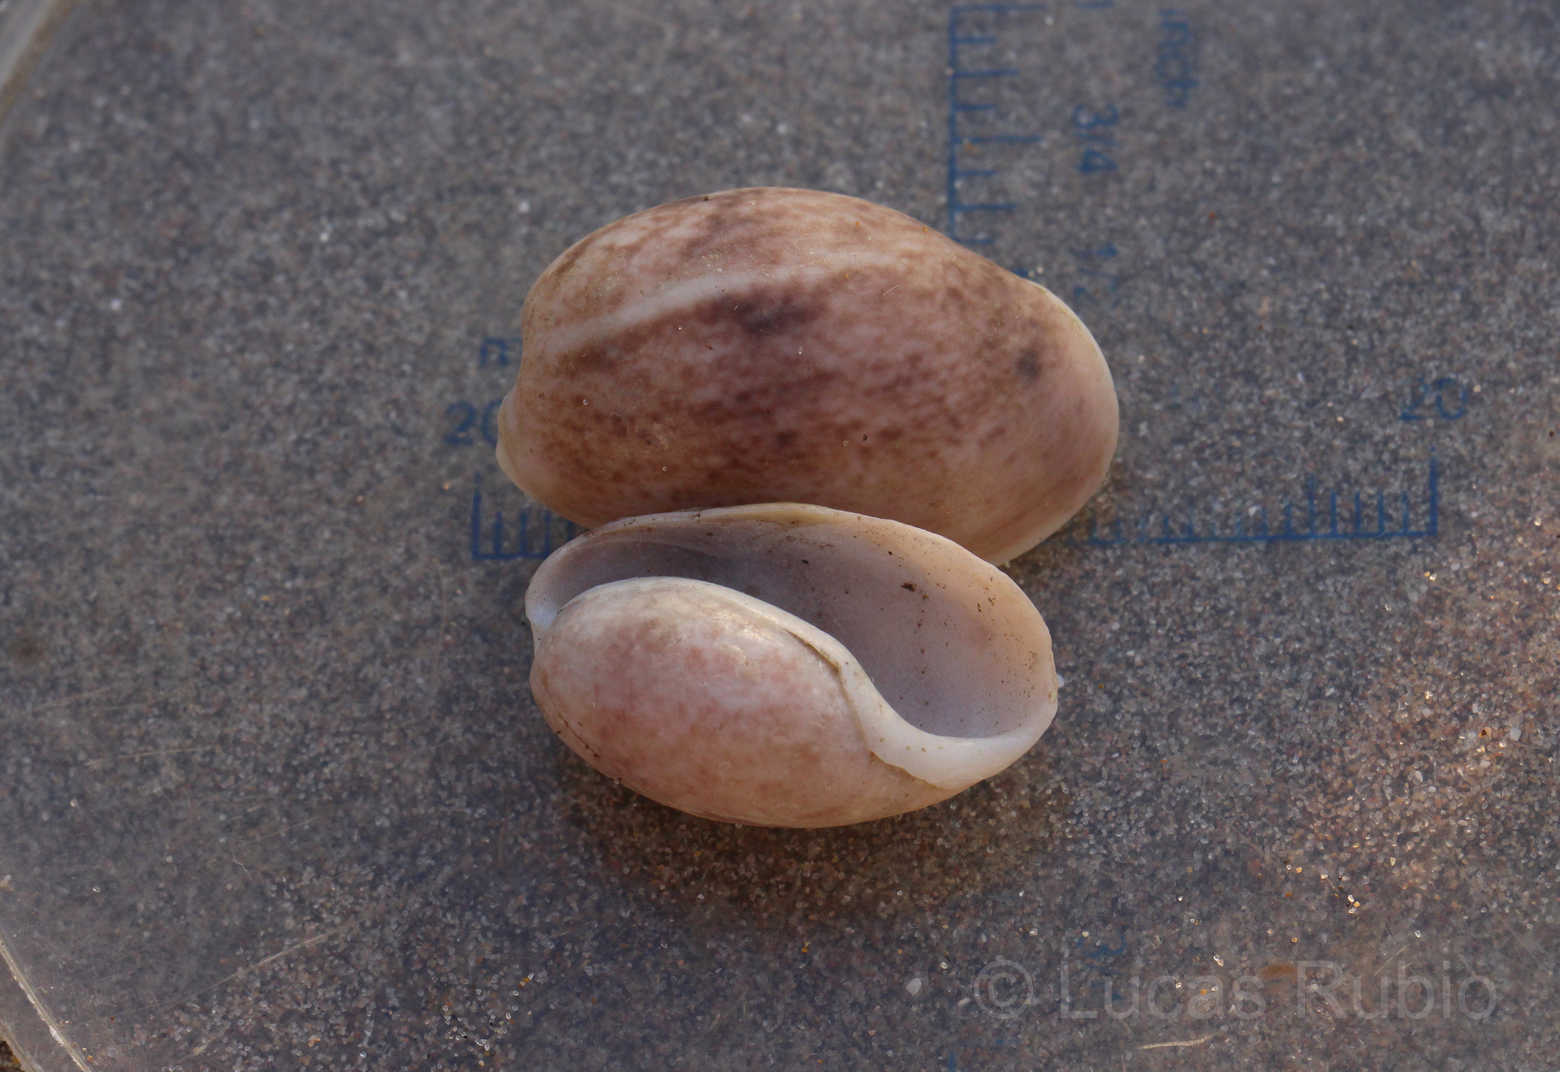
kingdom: Animalia
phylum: Mollusca
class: Gastropoda
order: Cephalaspidea
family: Bullidae
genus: Bulla
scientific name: Bulla occidentalis
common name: Common west-indian bubble
